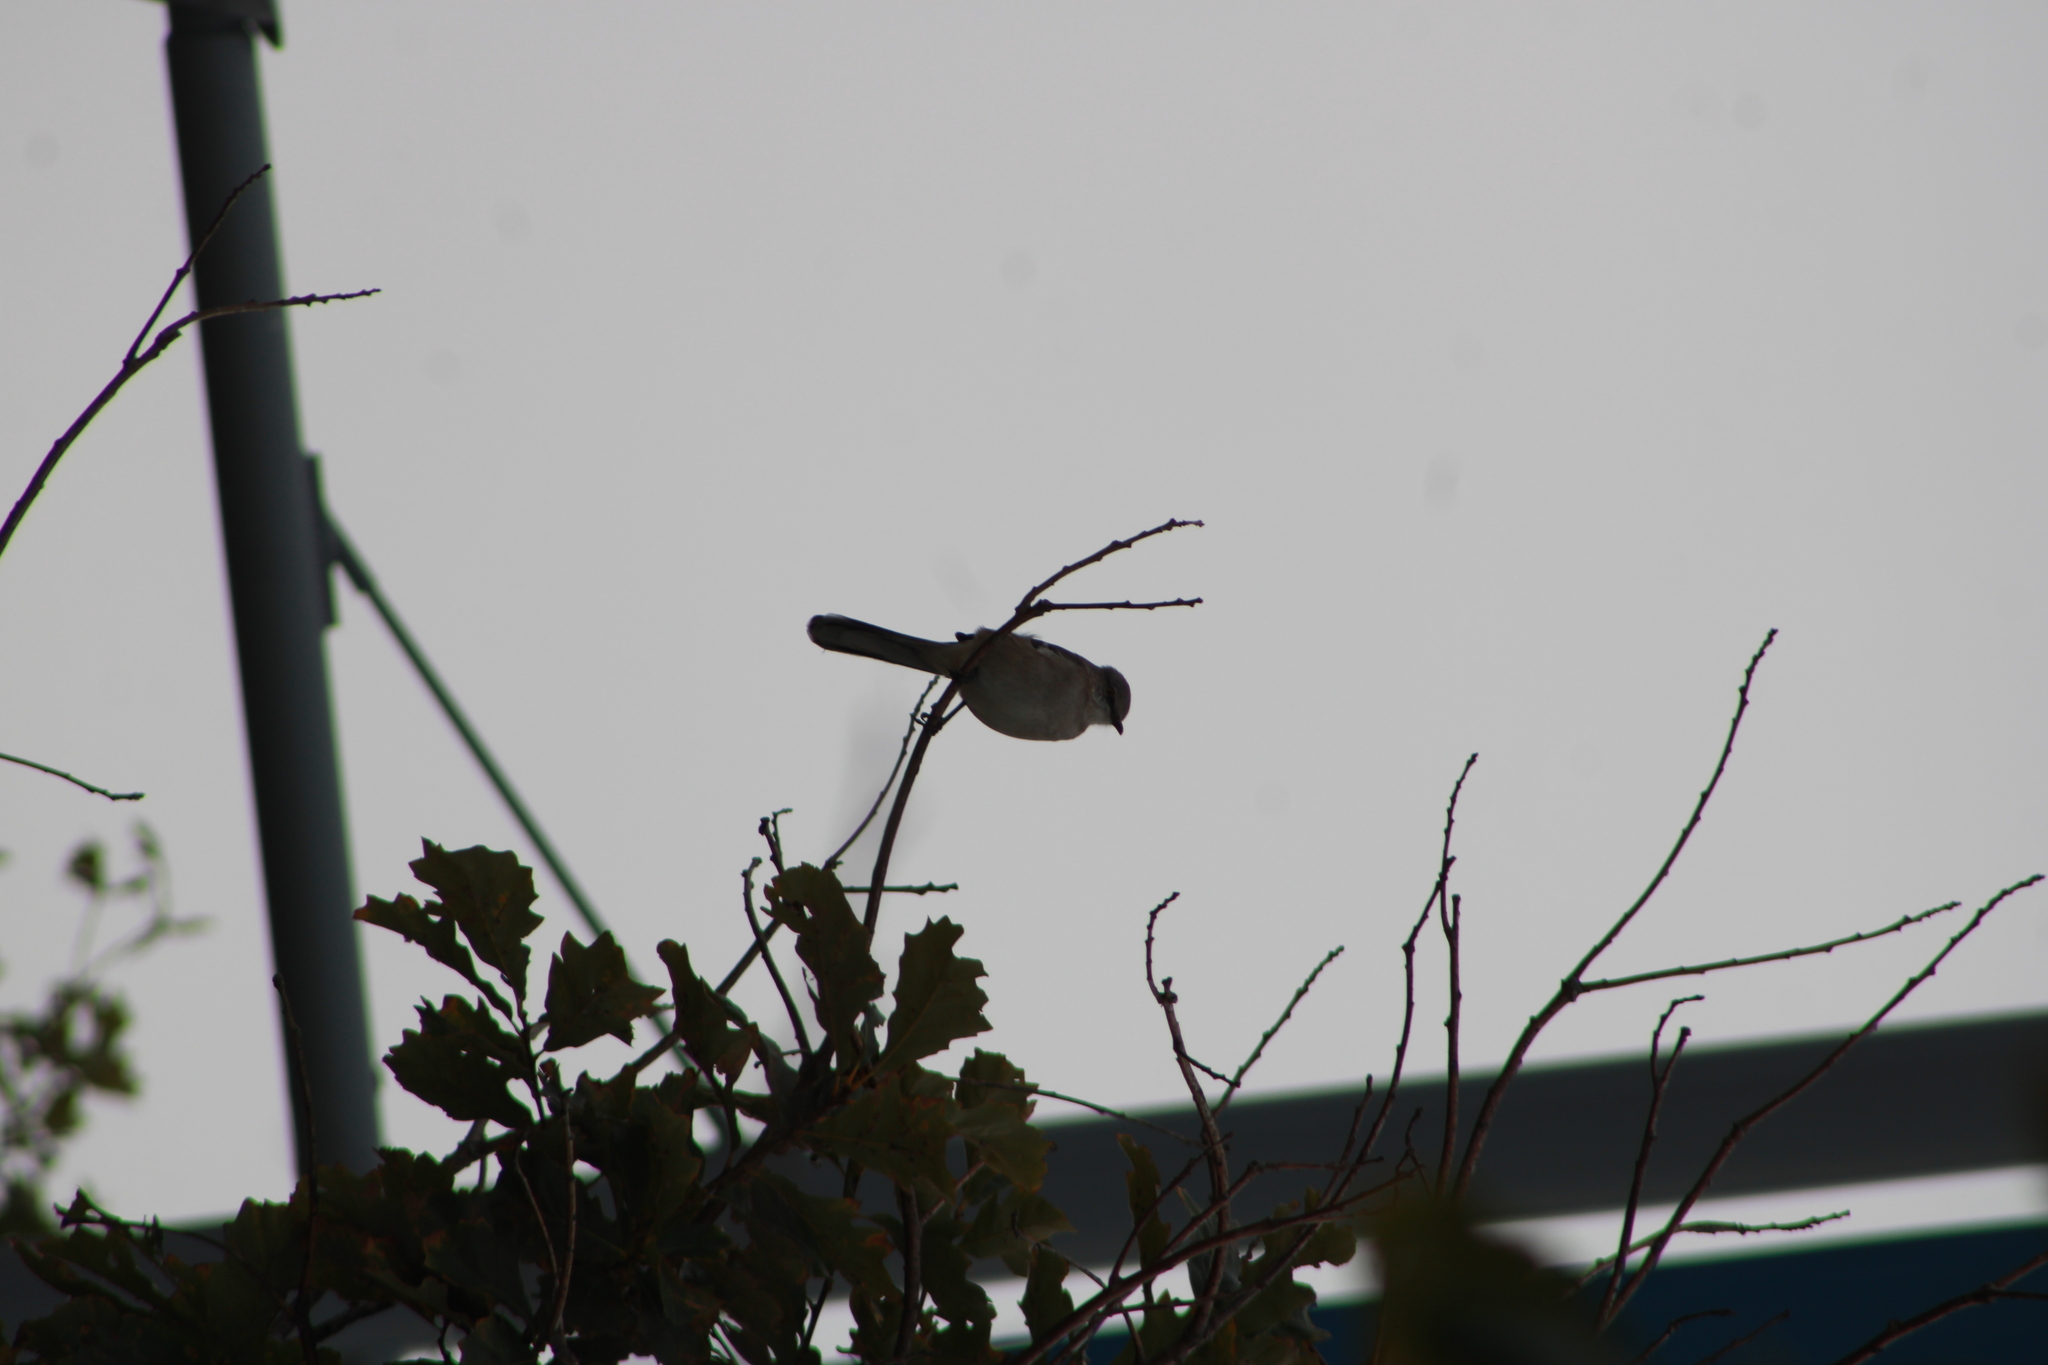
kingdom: Animalia
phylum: Chordata
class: Aves
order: Passeriformes
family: Mimidae
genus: Mimus
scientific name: Mimus polyglottos
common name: Northern mockingbird
